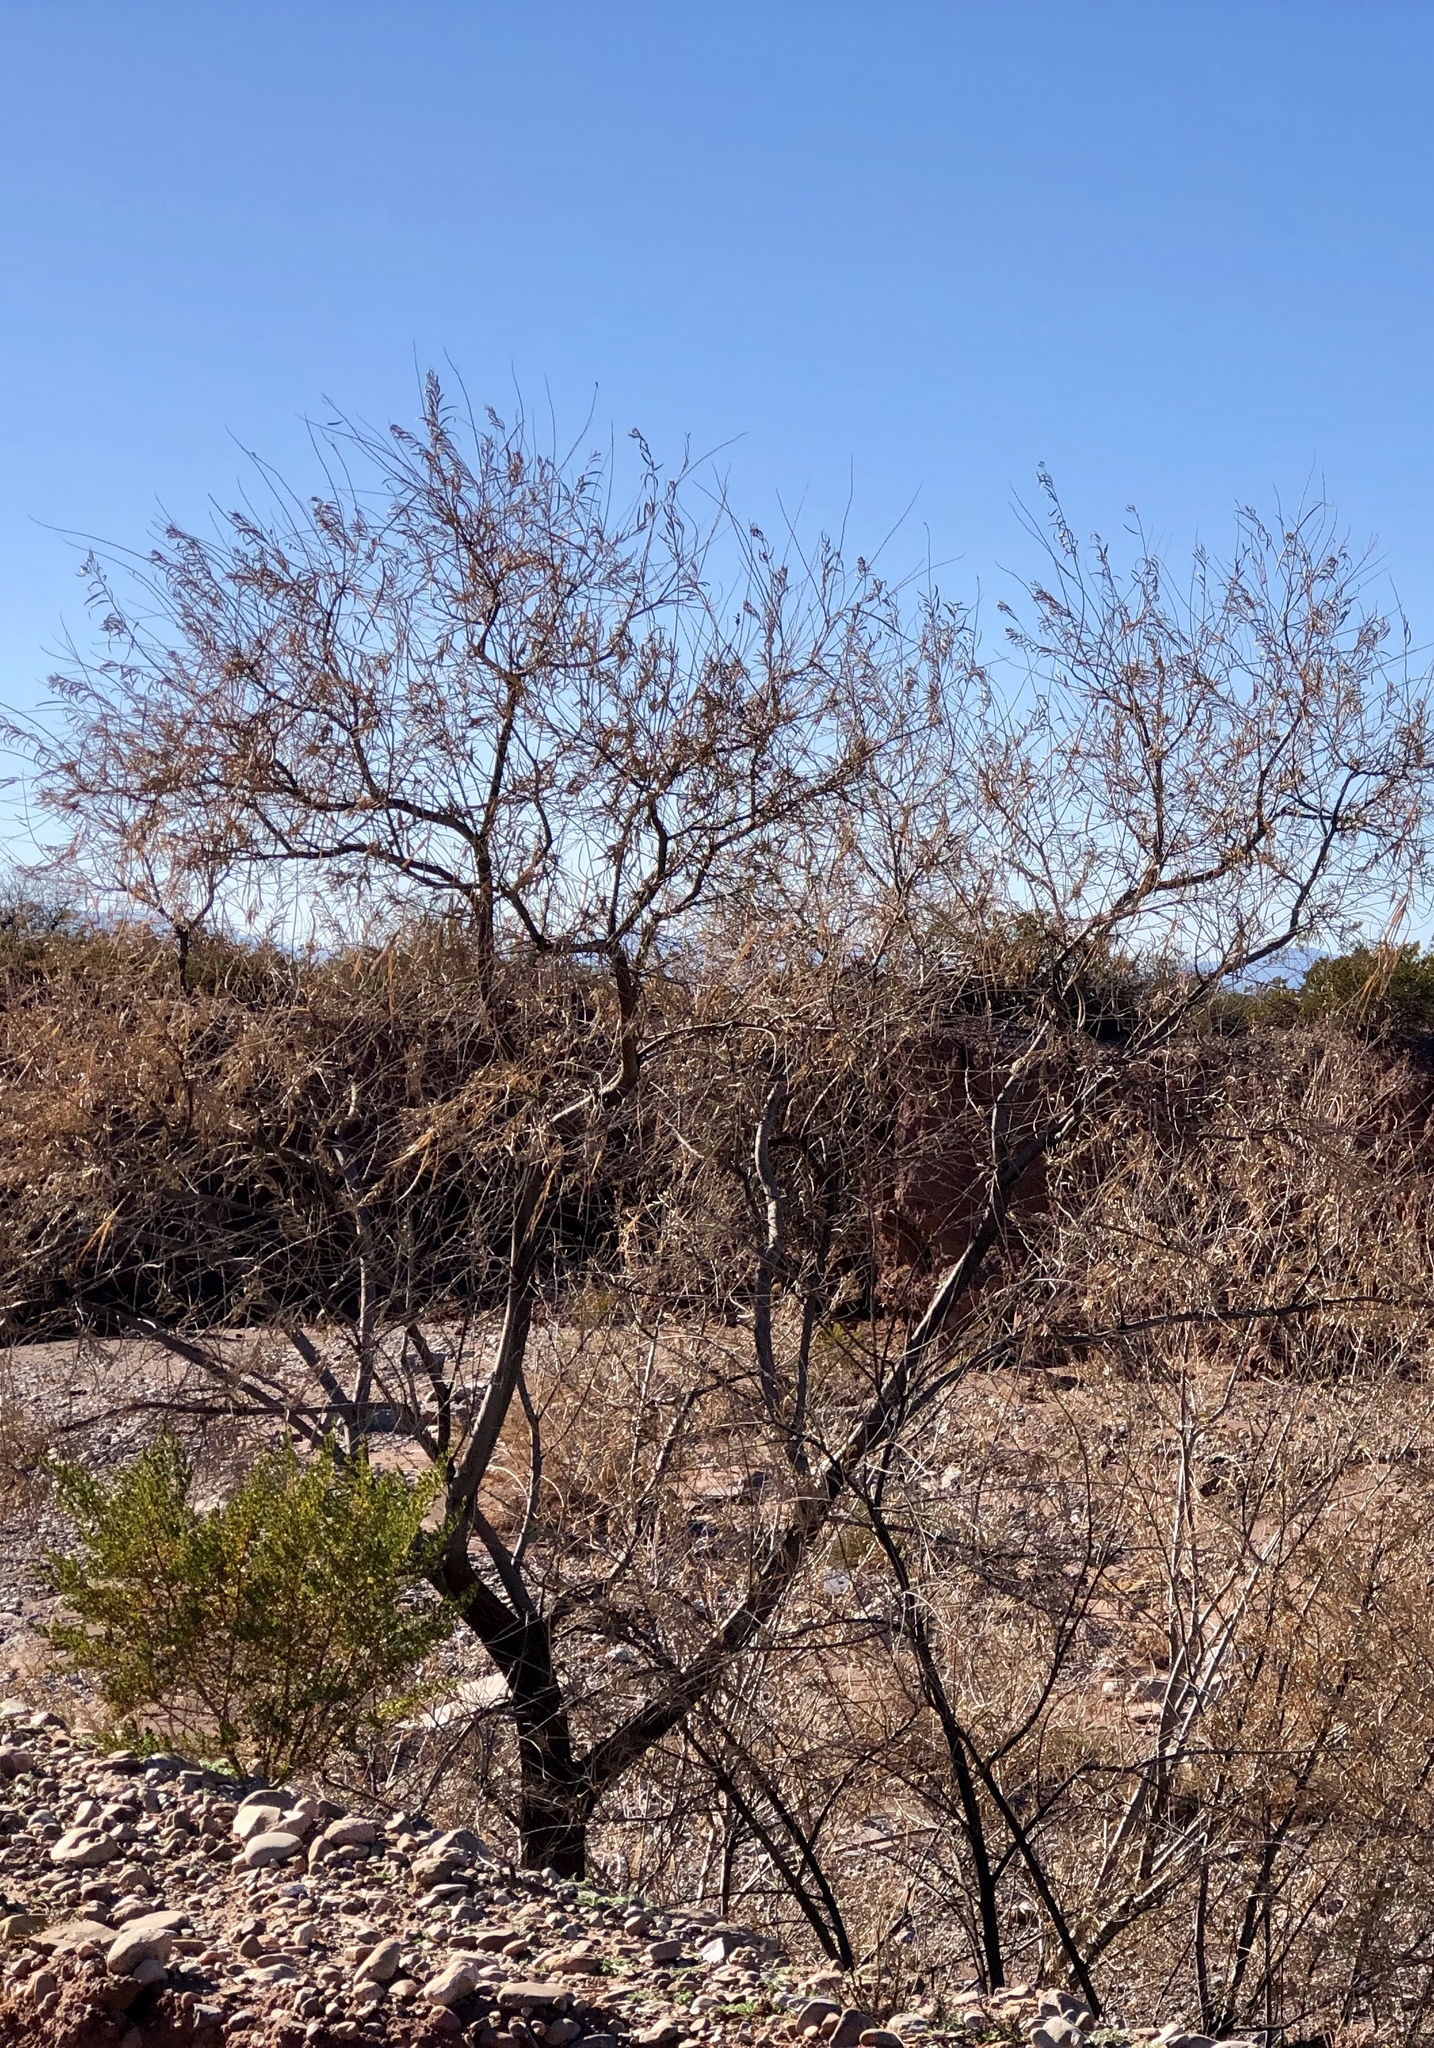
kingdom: Plantae
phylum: Tracheophyta
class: Magnoliopsida
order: Lamiales
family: Bignoniaceae
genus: Chilopsis
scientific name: Chilopsis linearis
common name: Desert-willow
